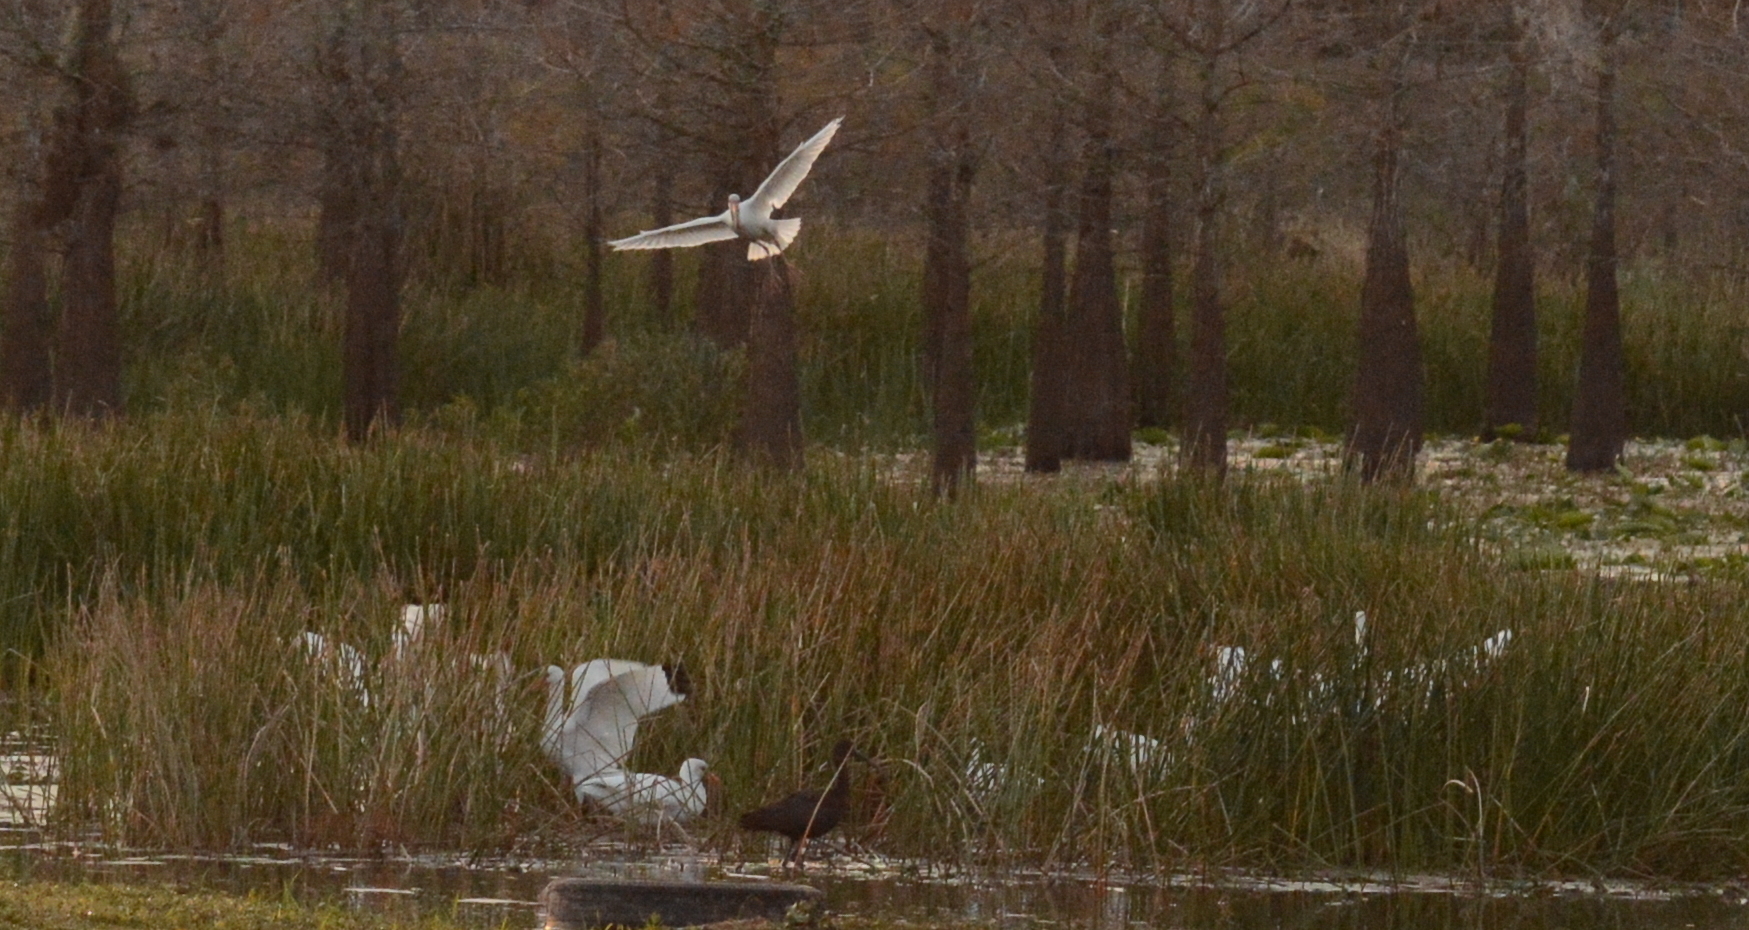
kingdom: Animalia
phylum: Chordata
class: Aves
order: Pelecaniformes
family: Threskiornithidae
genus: Eudocimus
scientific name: Eudocimus albus
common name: White ibis
